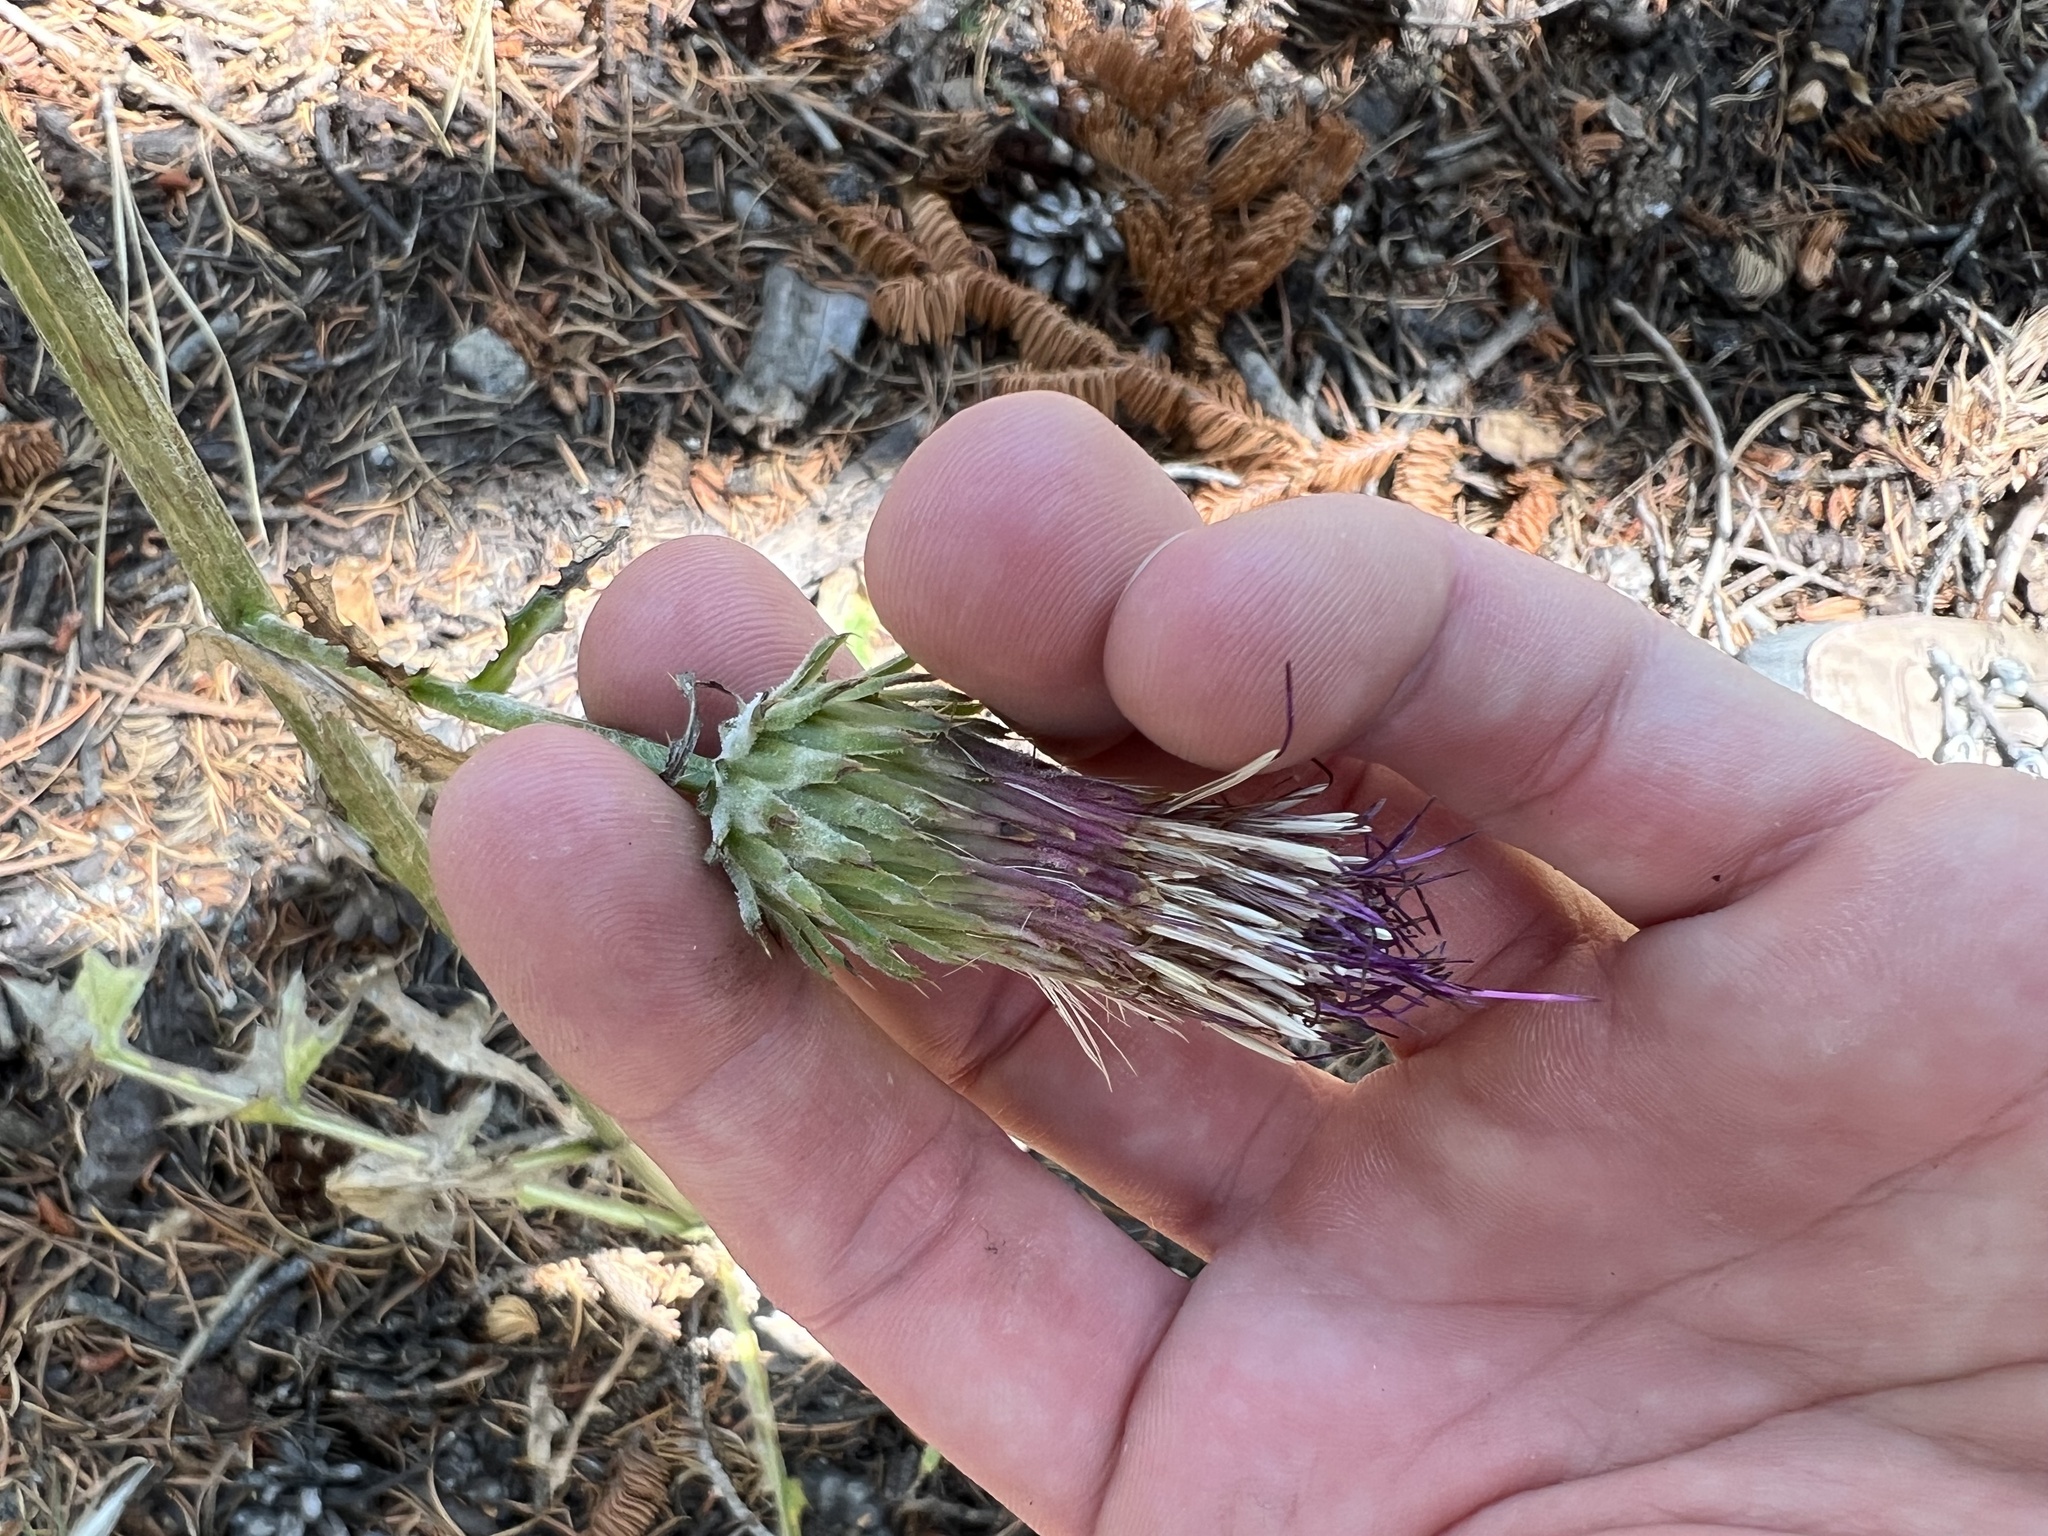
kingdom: Plantae
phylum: Tracheophyta
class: Magnoliopsida
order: Asterales
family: Asteraceae
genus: Cirsium
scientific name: Cirsium andersonii
